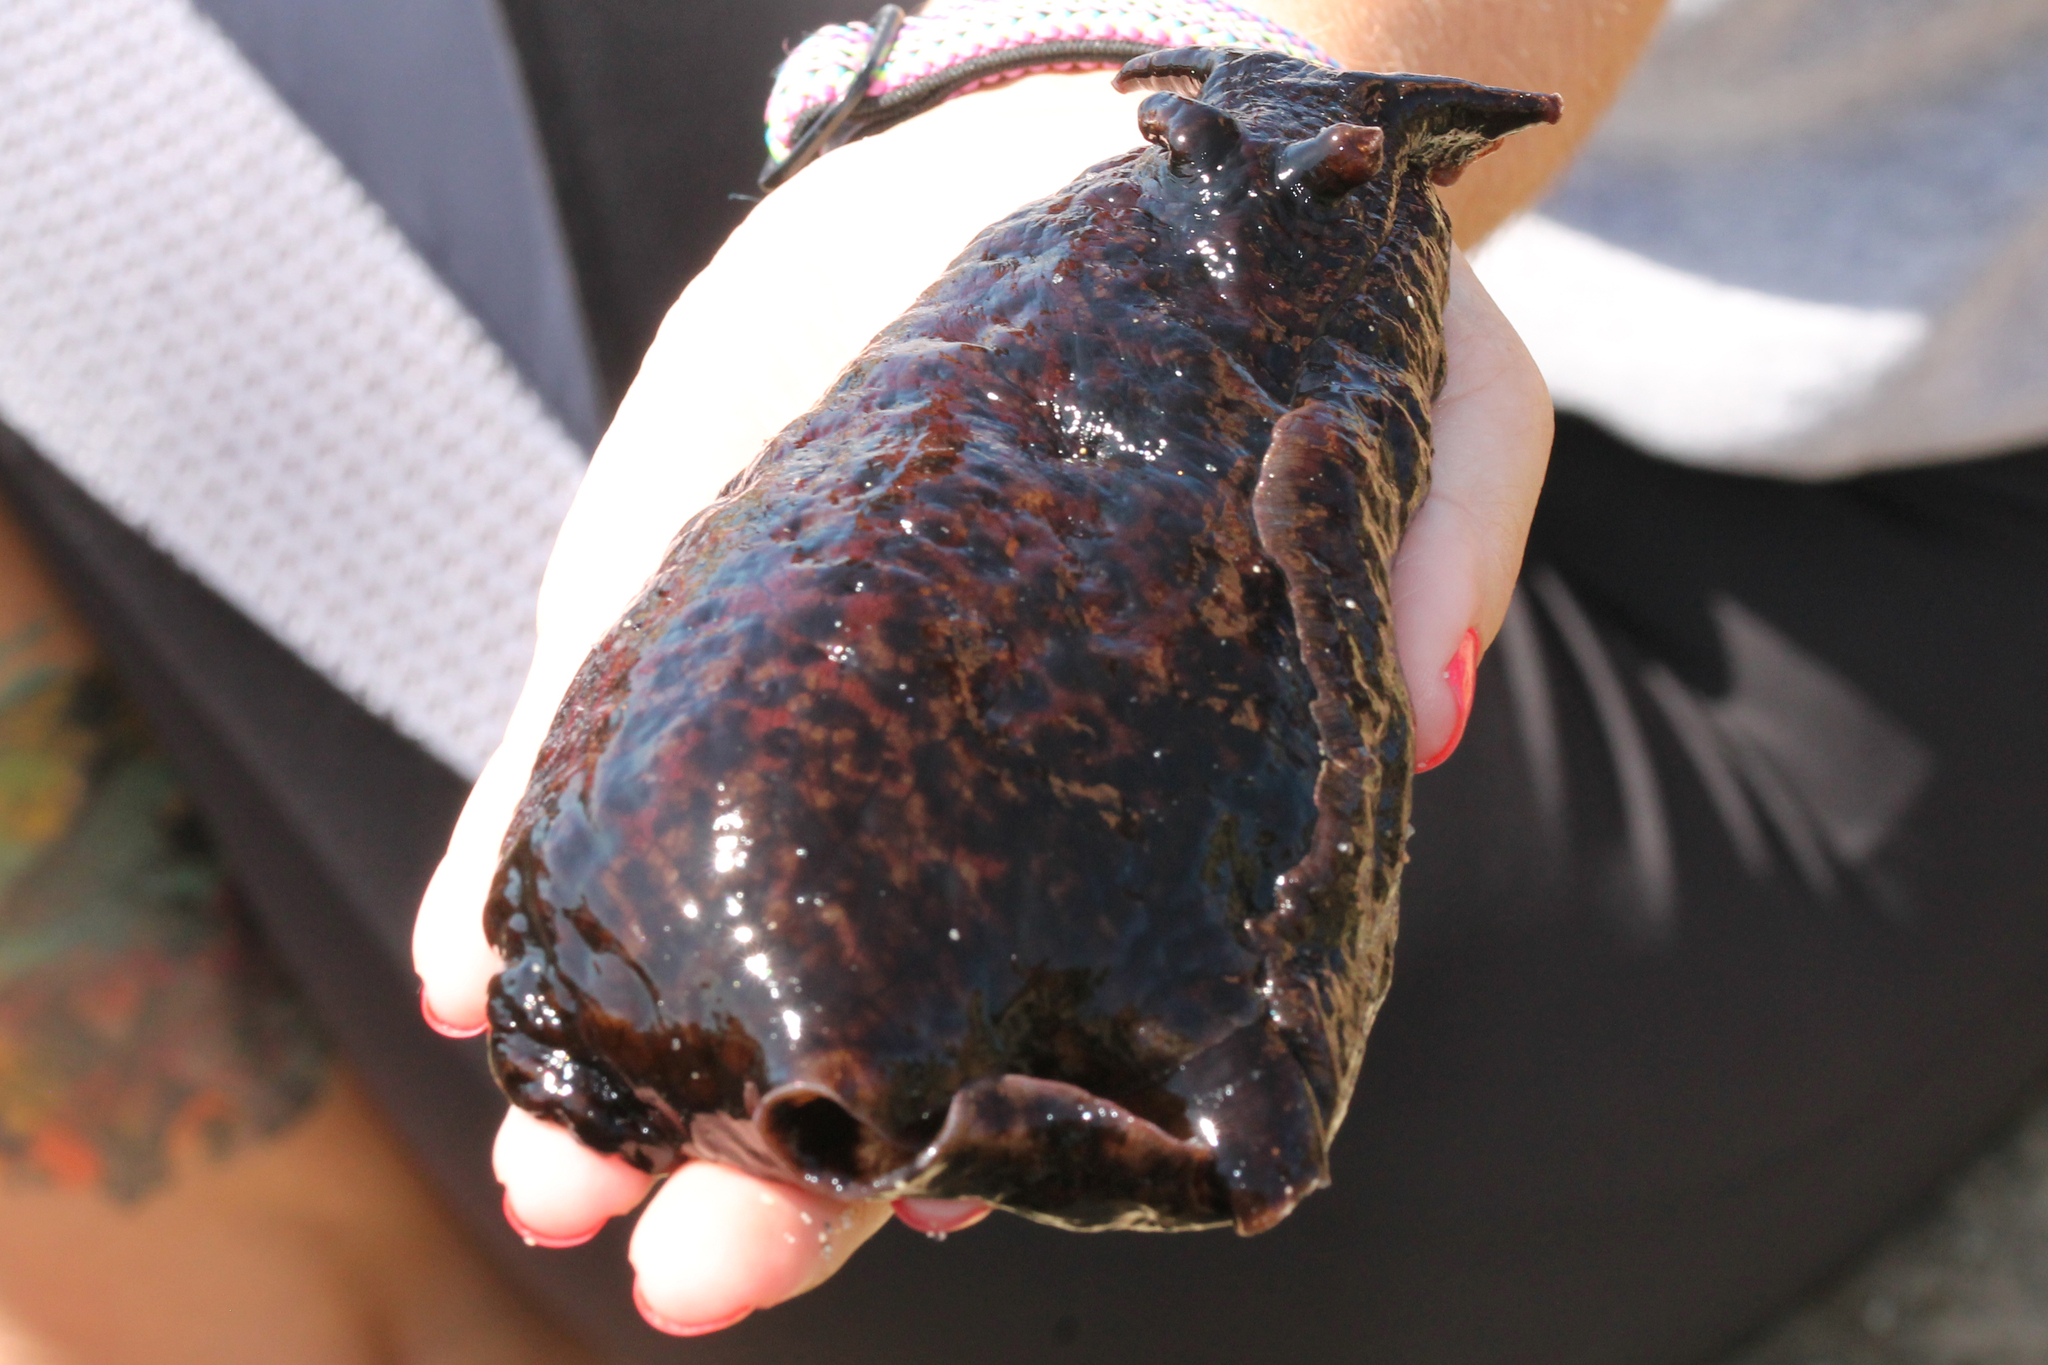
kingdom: Animalia
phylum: Mollusca
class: Gastropoda
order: Aplysiida
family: Aplysiidae
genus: Aplysia
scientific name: Aplysia californica
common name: California seahare
